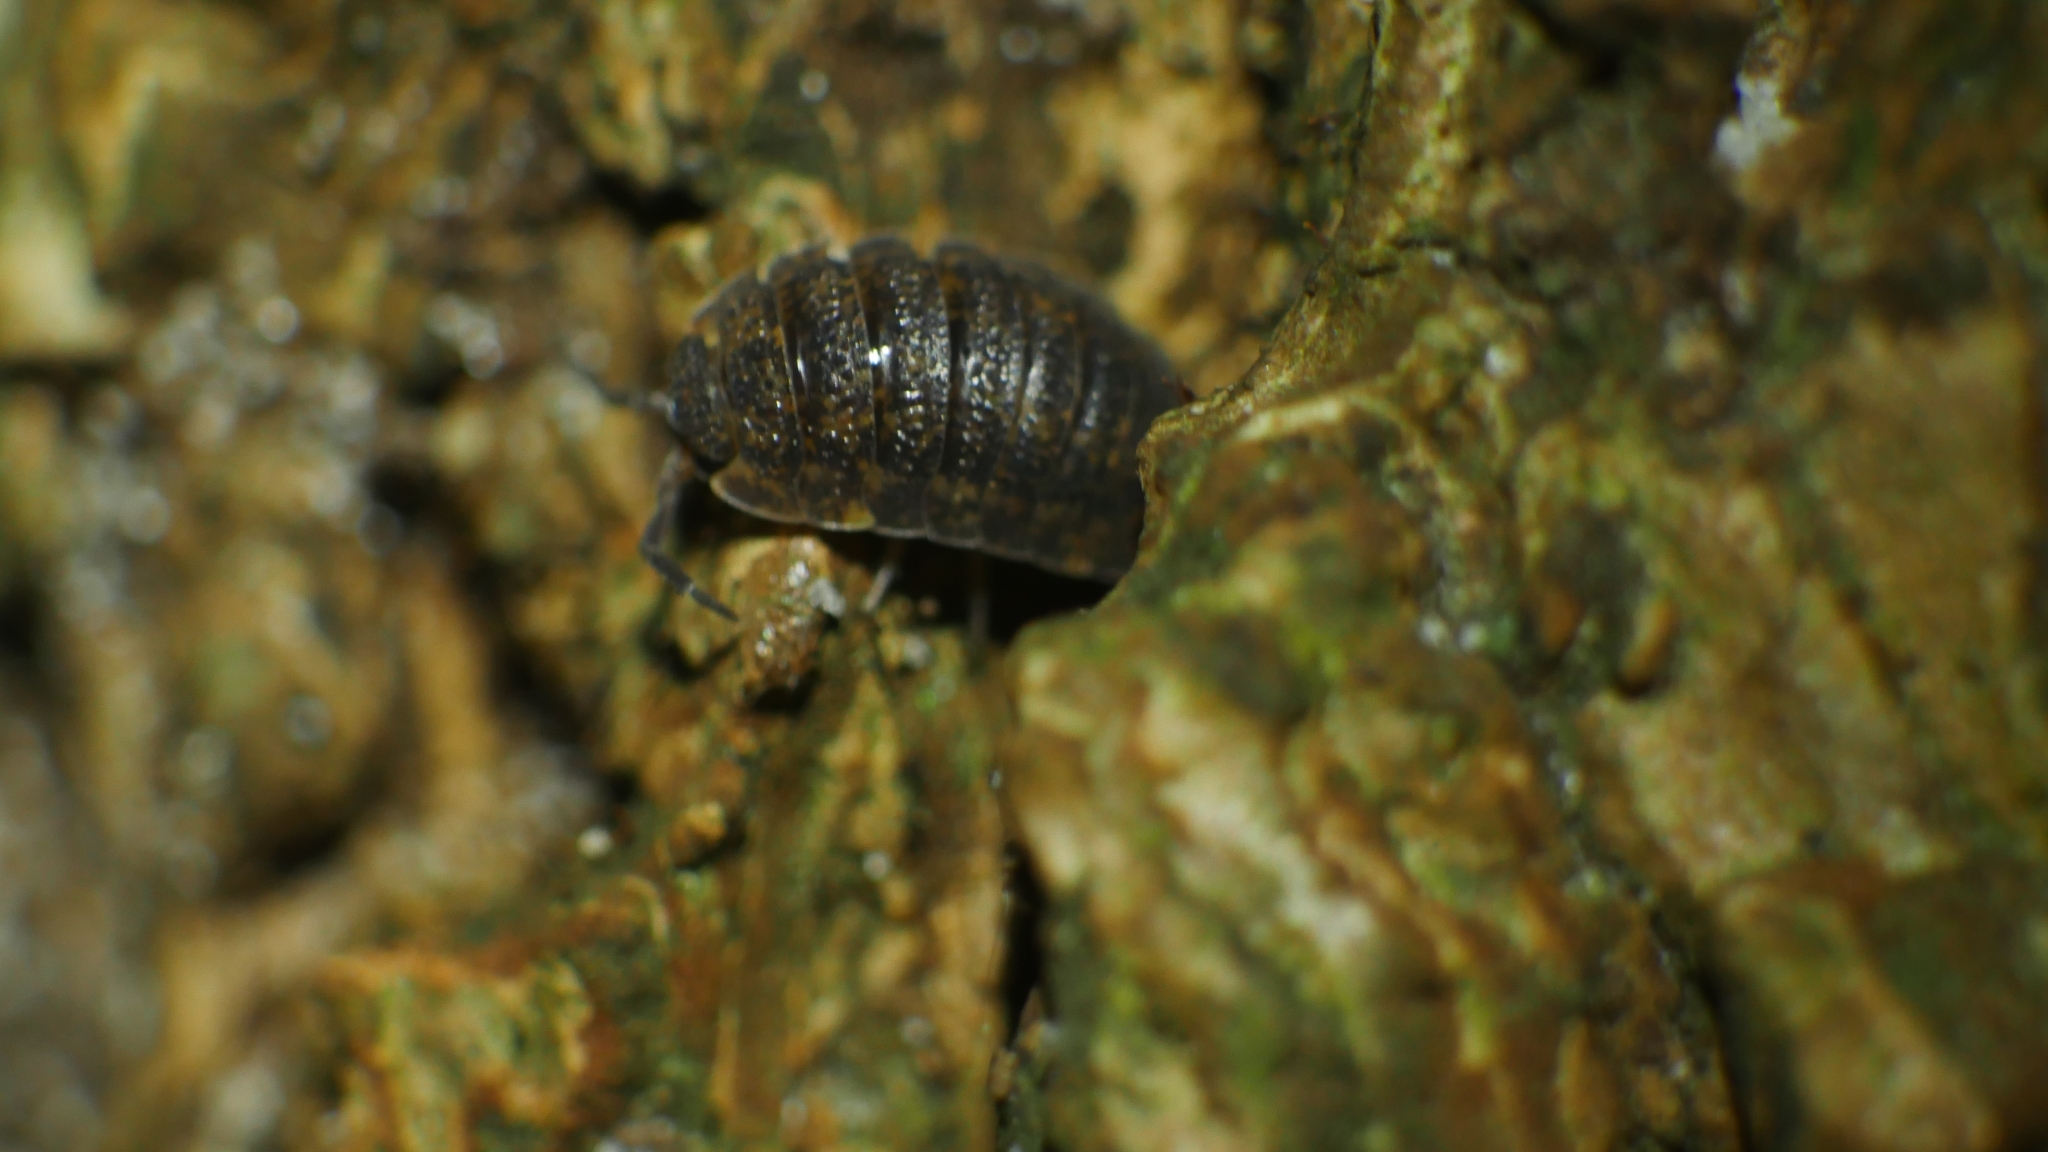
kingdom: Animalia
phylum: Arthropoda
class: Malacostraca
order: Isopoda
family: Porcellionidae
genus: Porcellio
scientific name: Porcellio scaber
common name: Common rough woodlouse
